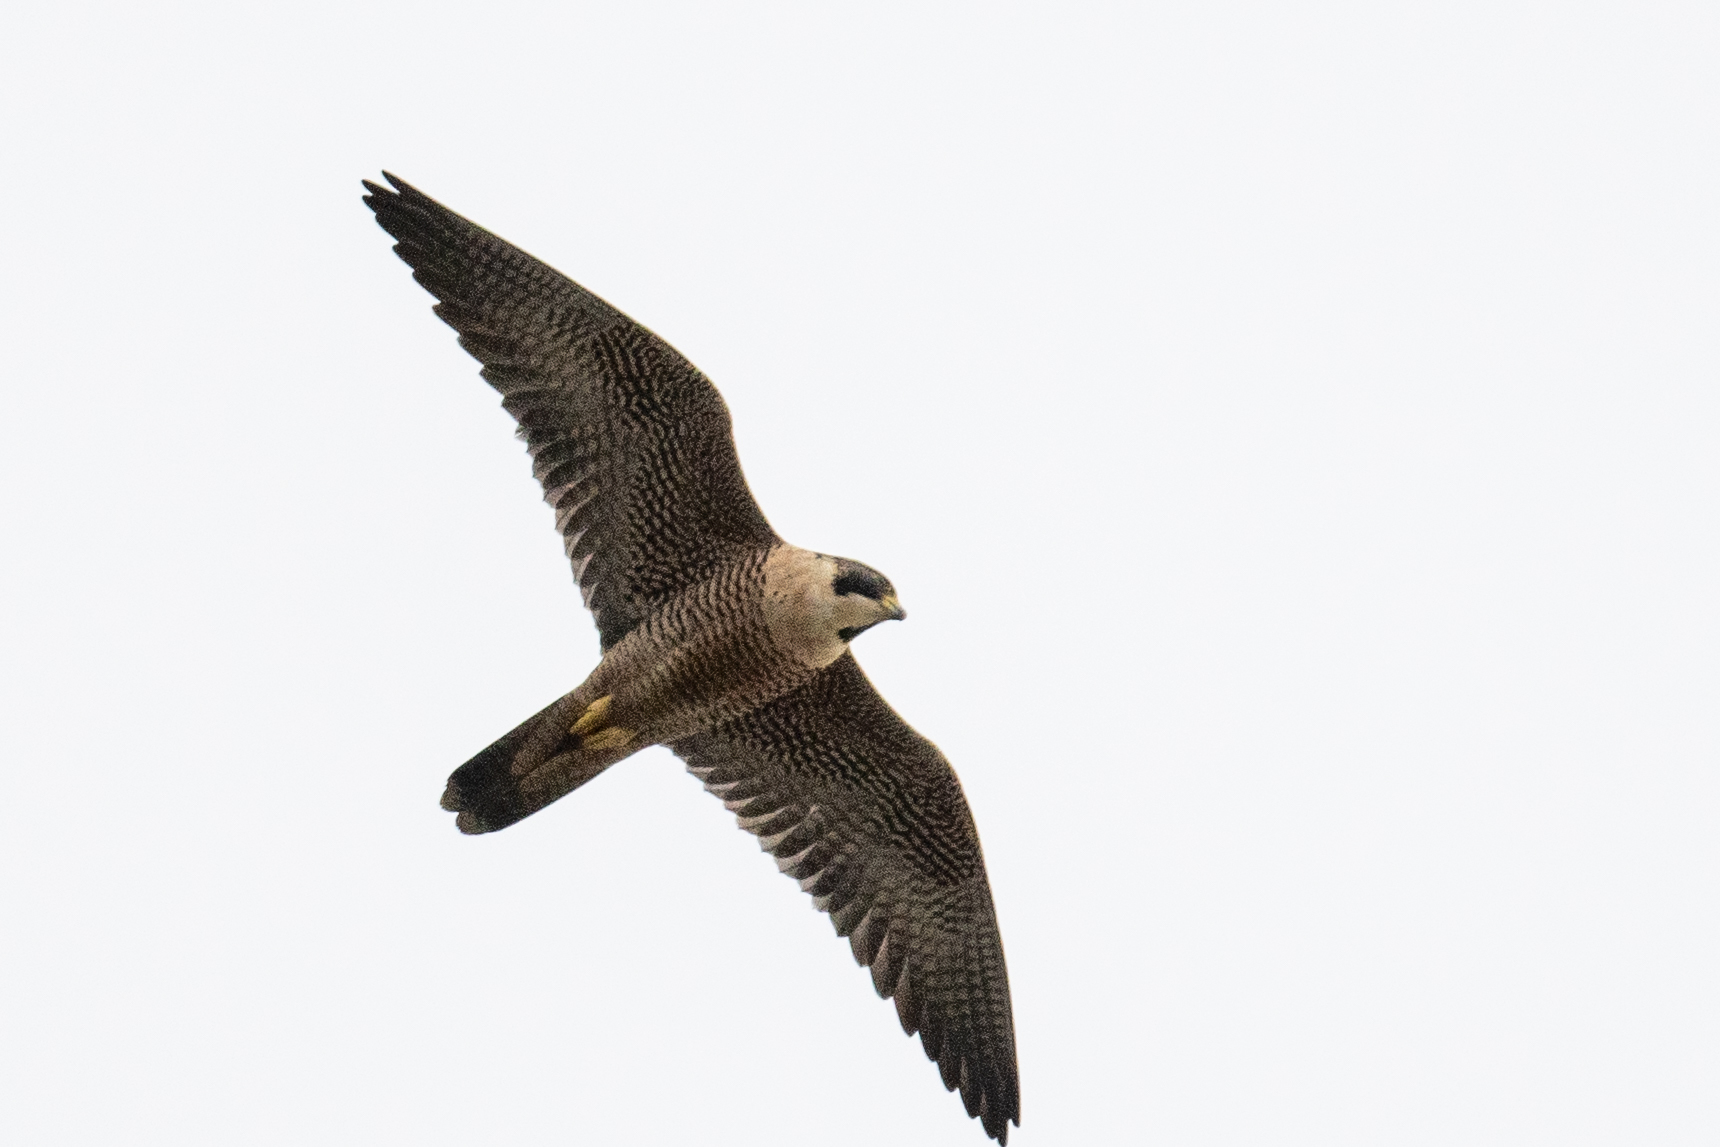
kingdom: Animalia
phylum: Chordata
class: Aves
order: Falconiformes
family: Falconidae
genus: Falco
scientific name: Falco peregrinus
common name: Peregrine falcon
